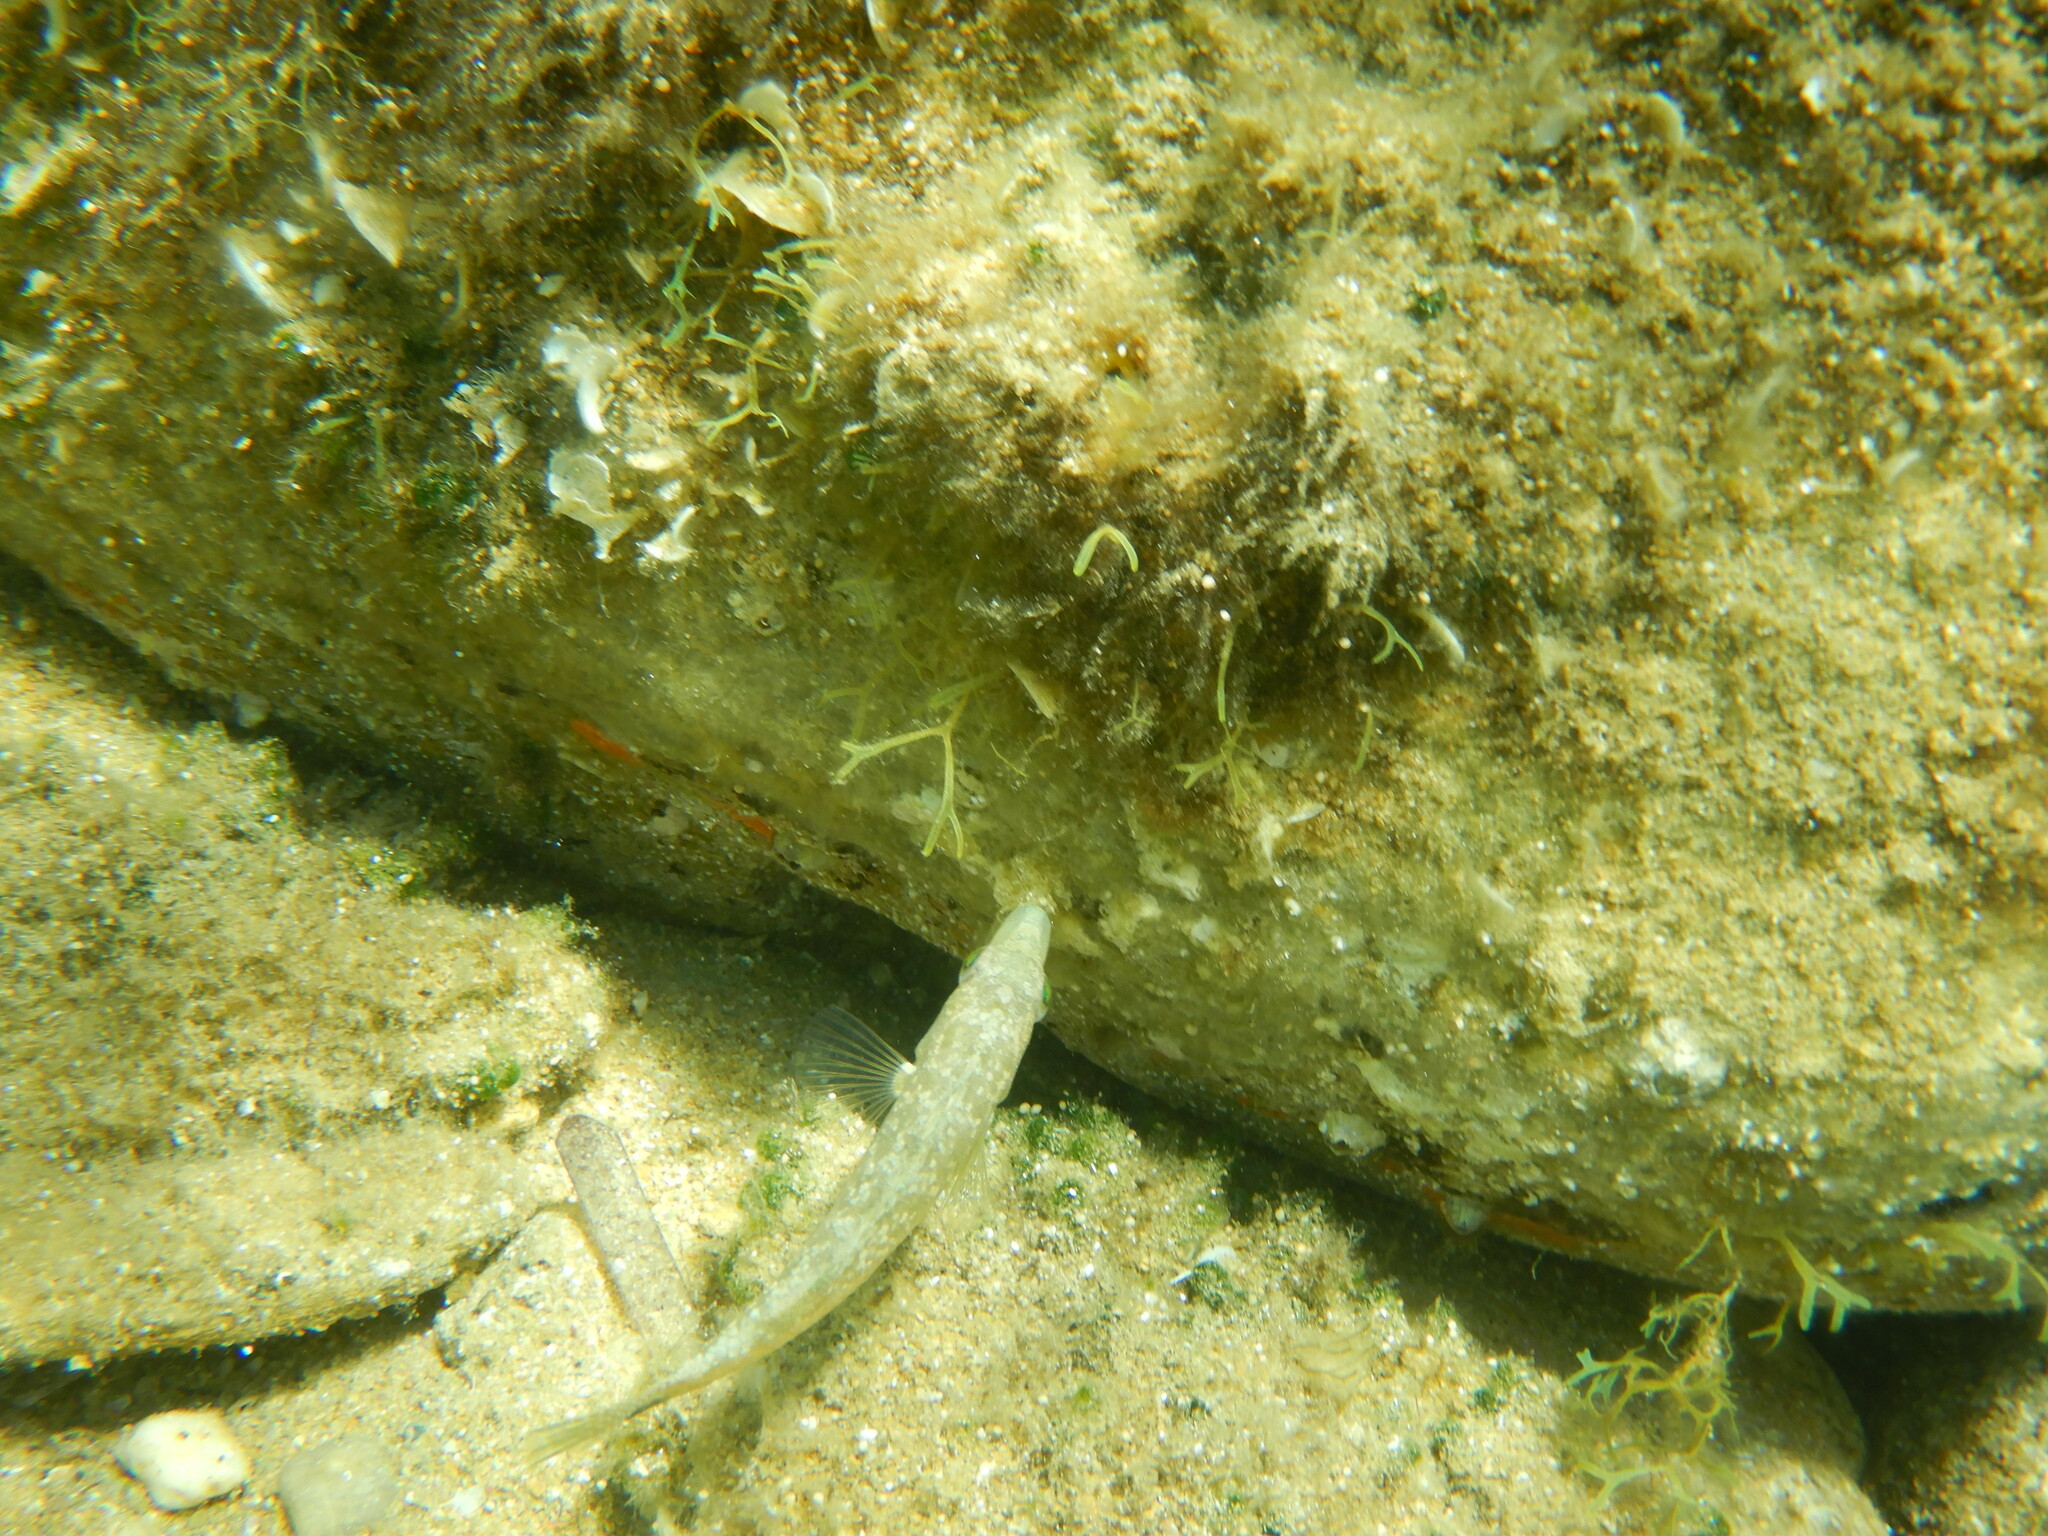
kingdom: Animalia
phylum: Chordata
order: Perciformes
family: Labridae
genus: Symphodus
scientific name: Symphodus cinereus
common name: Grey wrasse
